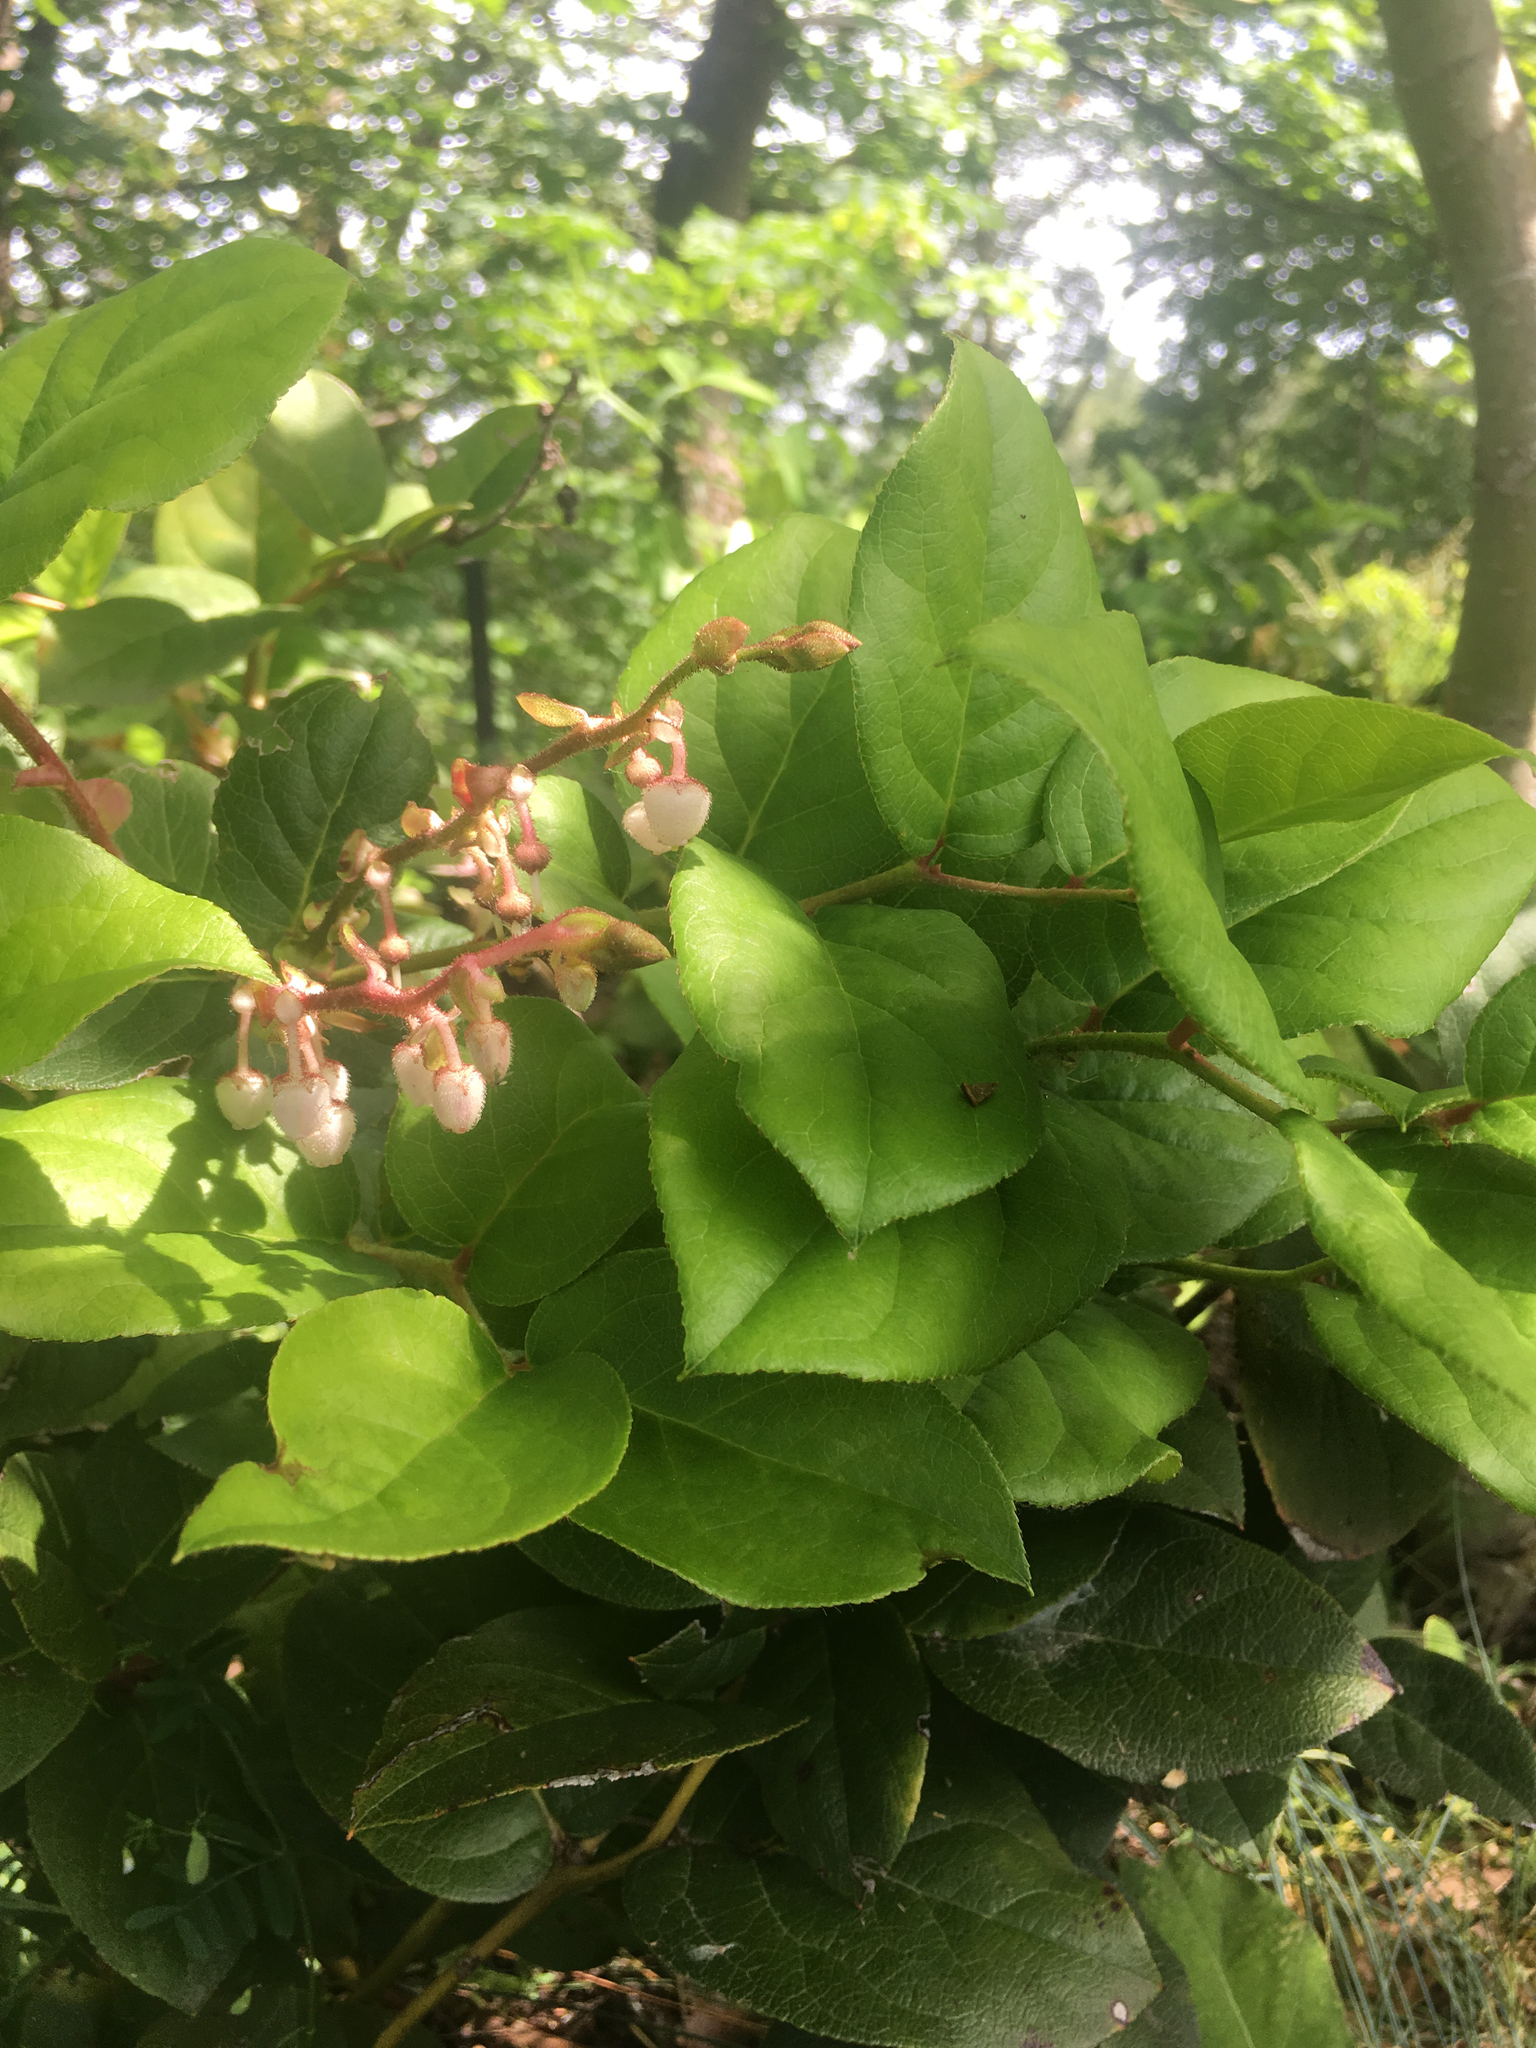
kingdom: Plantae
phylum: Tracheophyta
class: Magnoliopsida
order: Ericales
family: Ericaceae
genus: Gaultheria
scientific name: Gaultheria shallon
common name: Shallon
